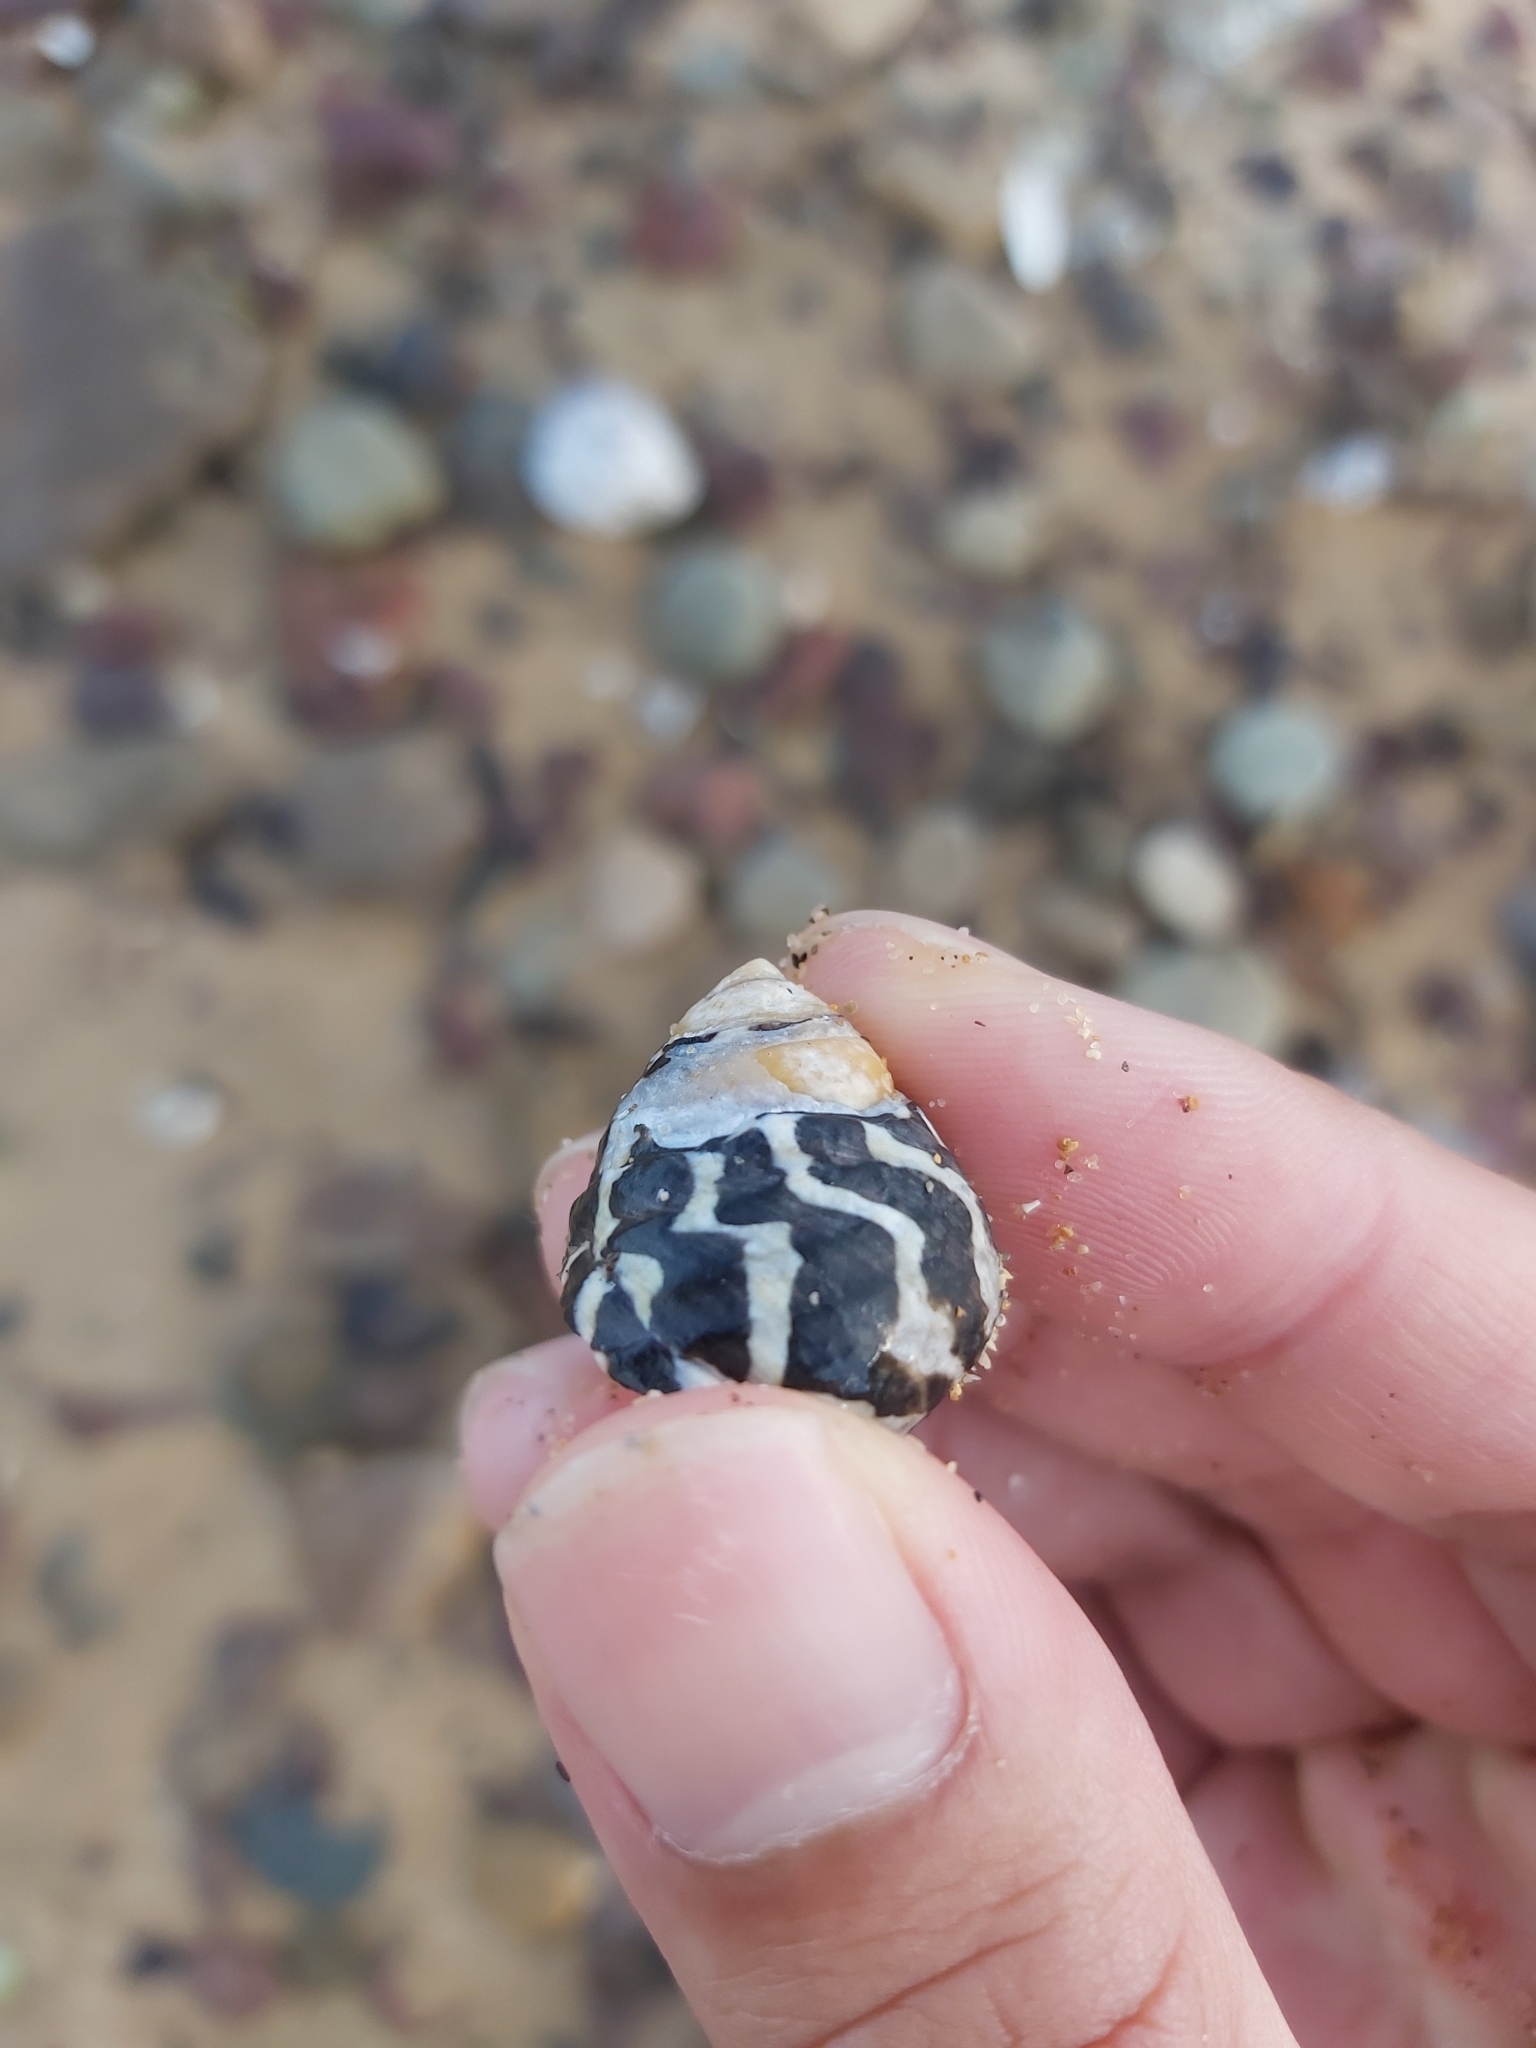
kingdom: Animalia
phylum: Mollusca
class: Gastropoda
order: Trochida
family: Trochidae
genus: Austrocochlea
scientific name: Austrocochlea porcata
